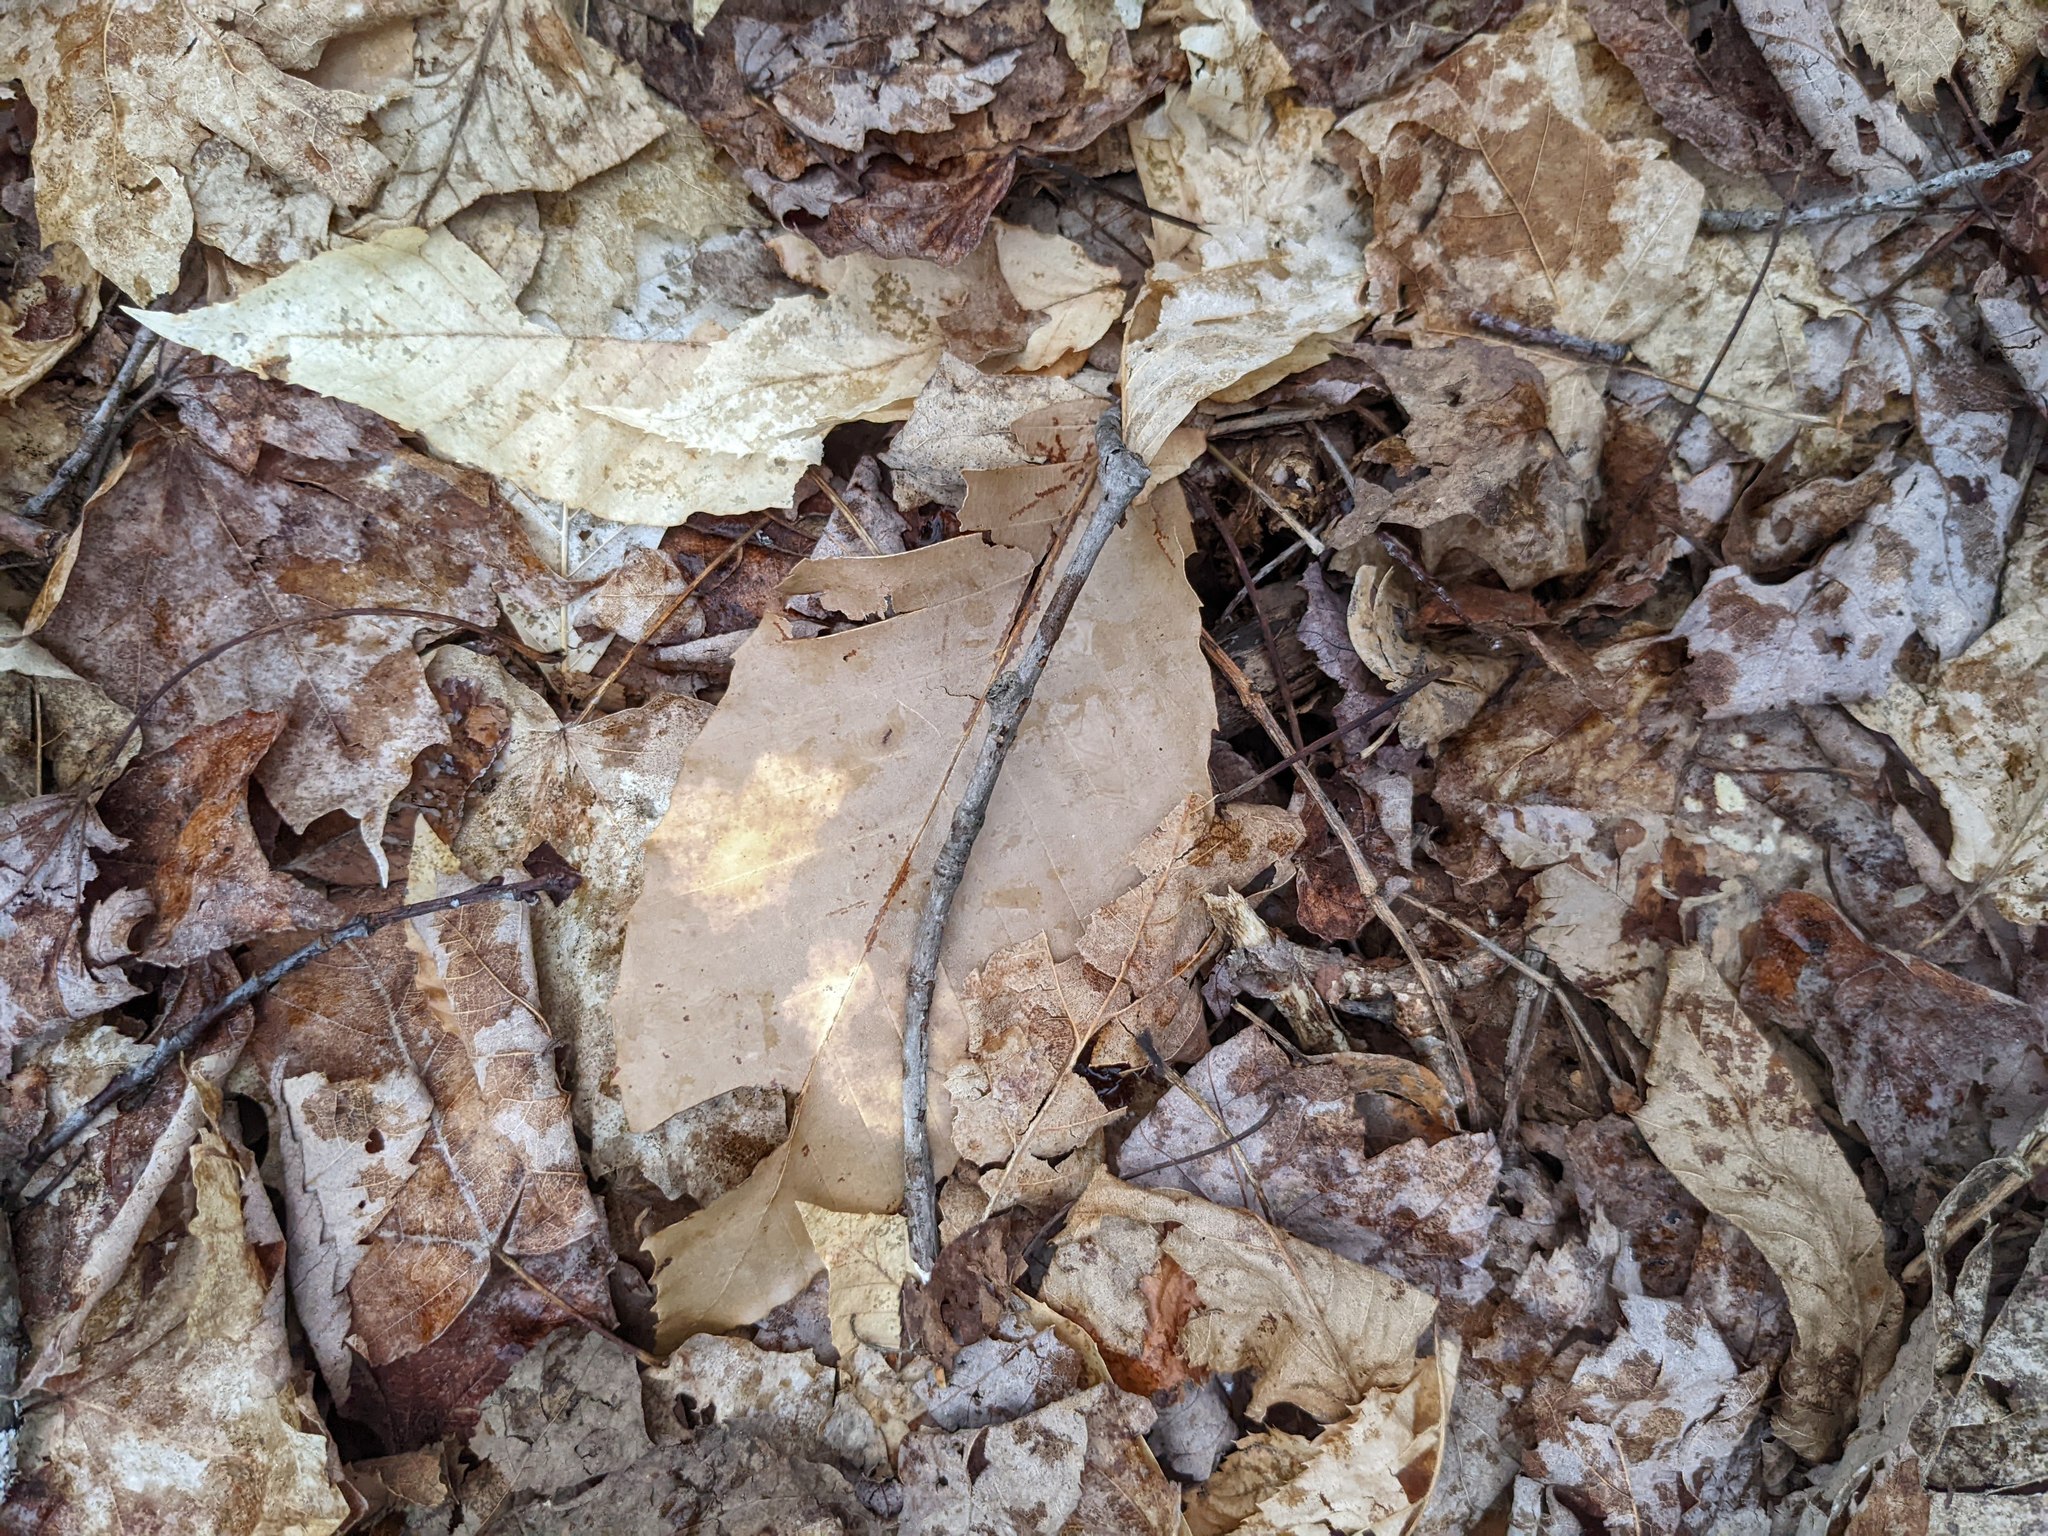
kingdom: Plantae
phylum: Tracheophyta
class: Magnoliopsida
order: Fagales
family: Fagaceae
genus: Fagus
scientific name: Fagus grandifolia
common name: American beech
